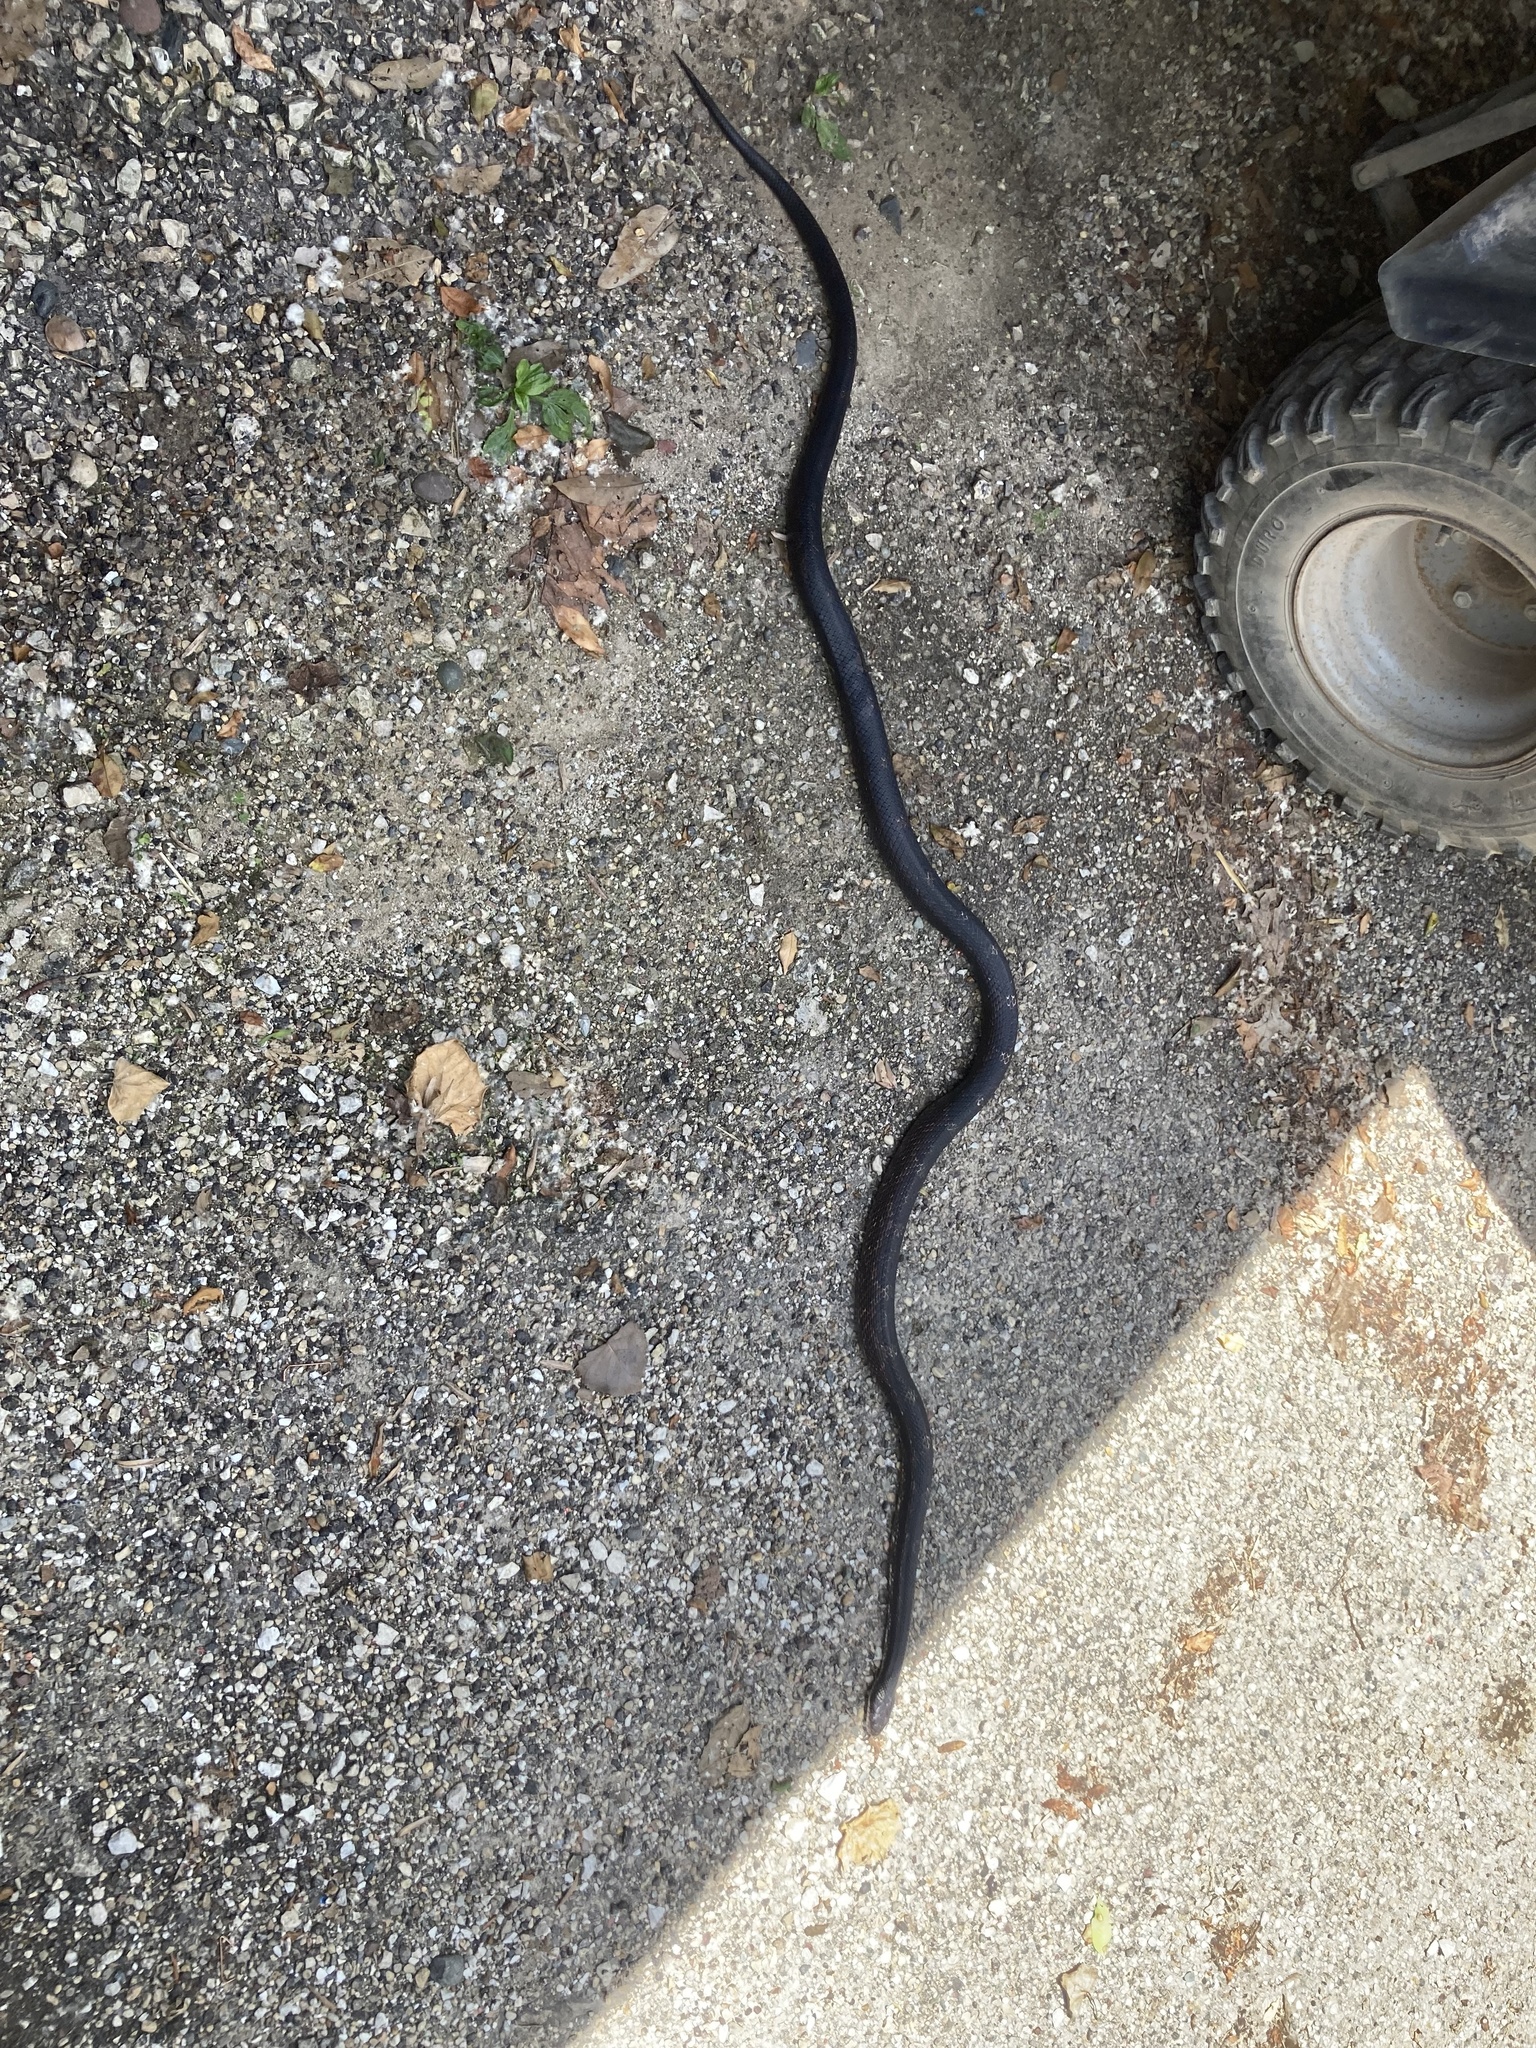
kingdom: Animalia
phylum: Chordata
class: Squamata
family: Colubridae
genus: Pantherophis
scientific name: Pantherophis spiloides
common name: Gray rat snake
